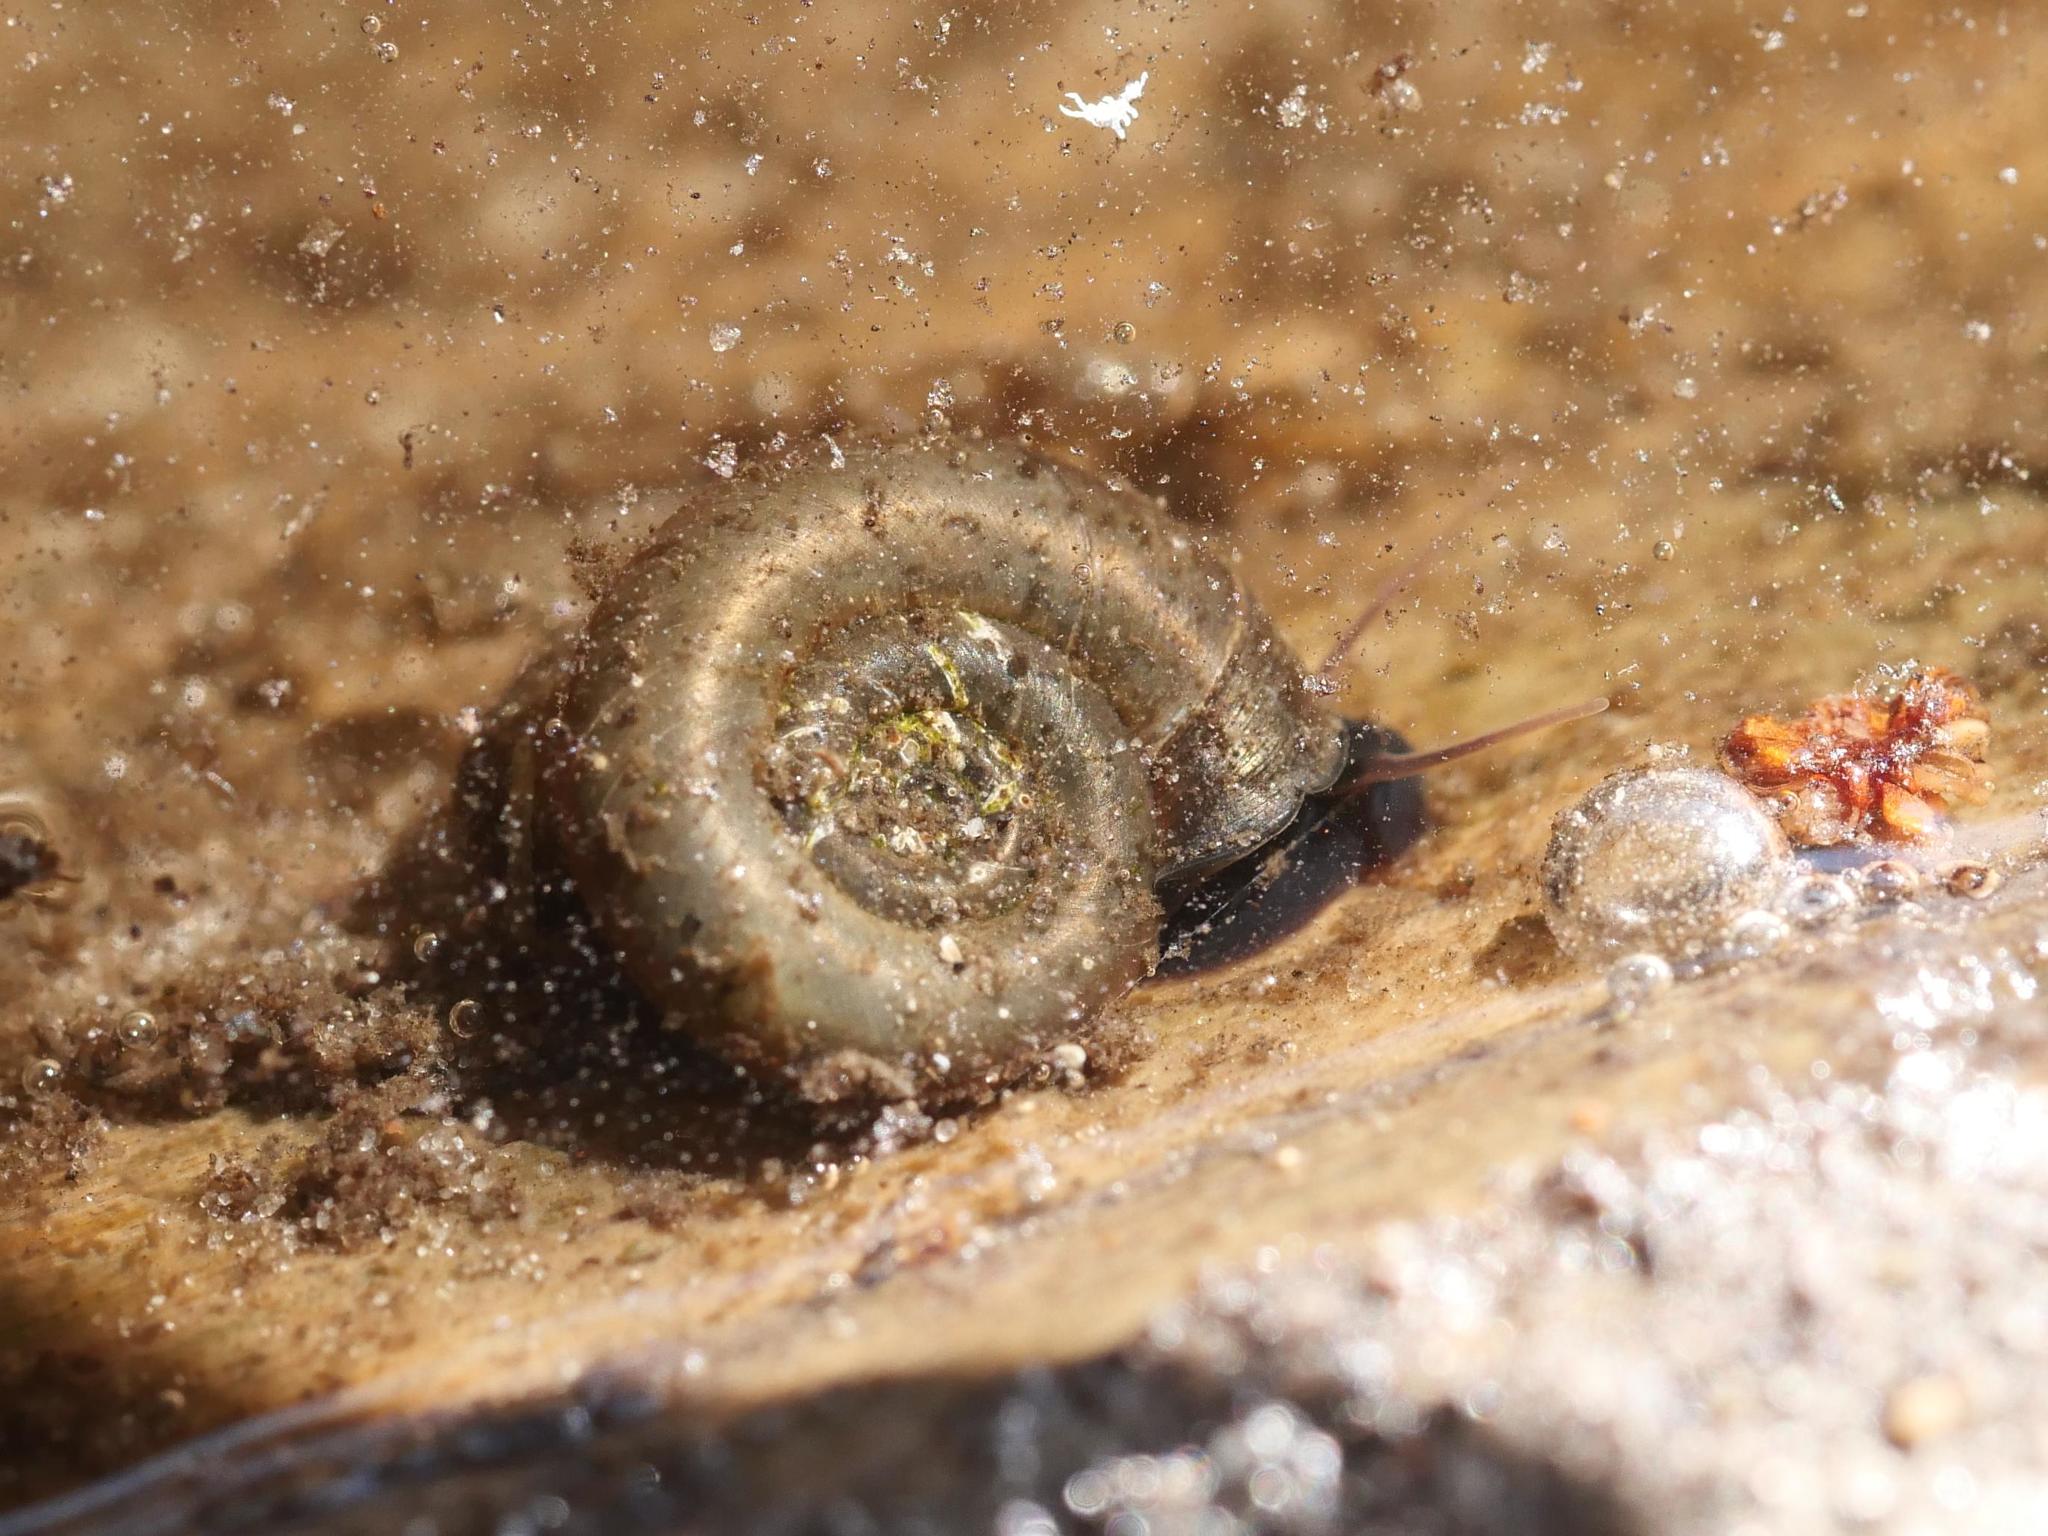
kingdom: Animalia
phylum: Mollusca
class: Gastropoda
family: Planorbidae
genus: Planorbarius
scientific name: Planorbarius corneus
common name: Great ramshorn
